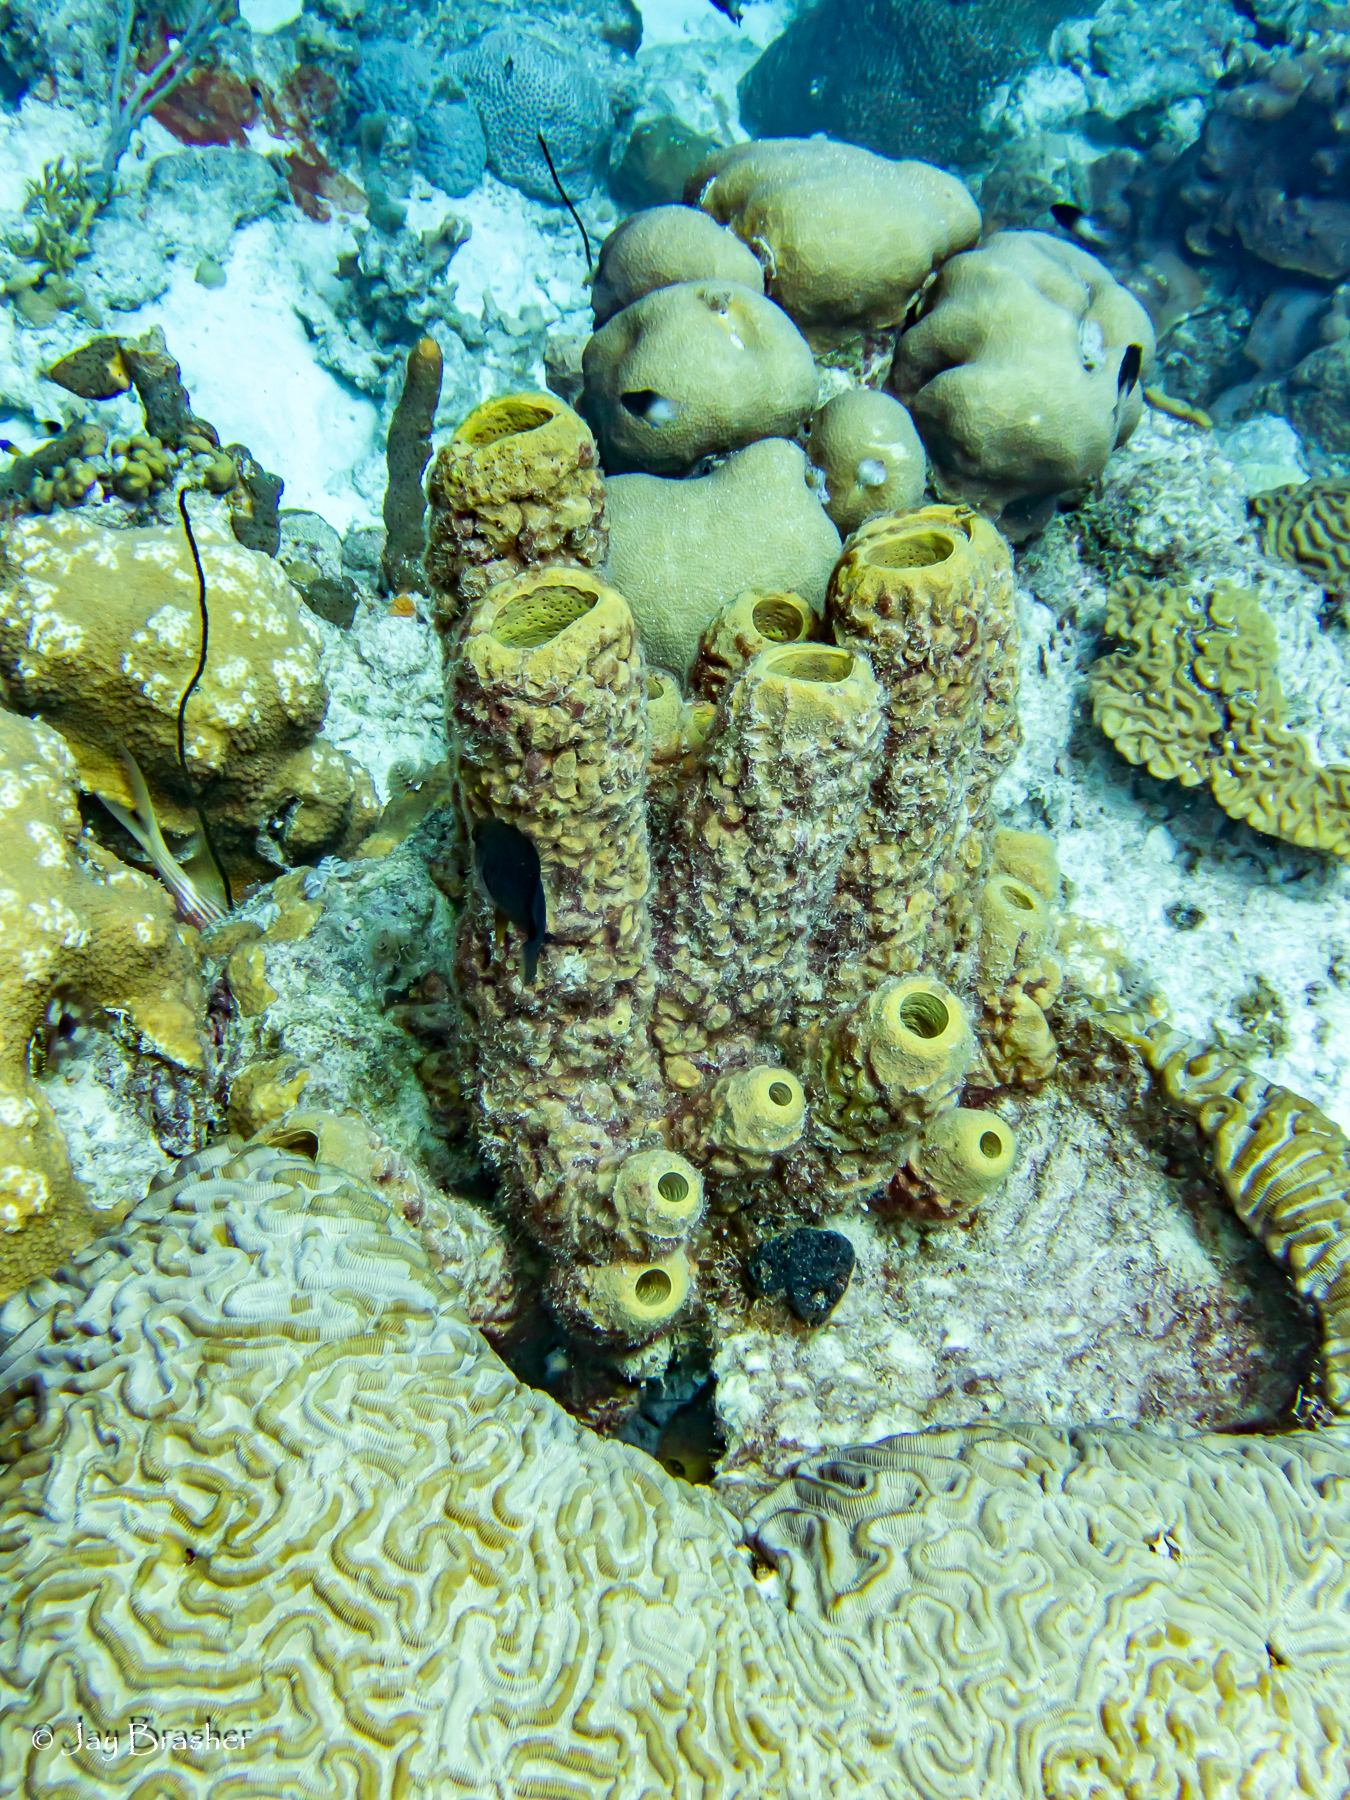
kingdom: Animalia
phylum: Porifera
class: Demospongiae
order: Verongiida
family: Aplysinidae
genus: Aplysina
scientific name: Aplysina archeri
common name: Stove-pipe sponge
